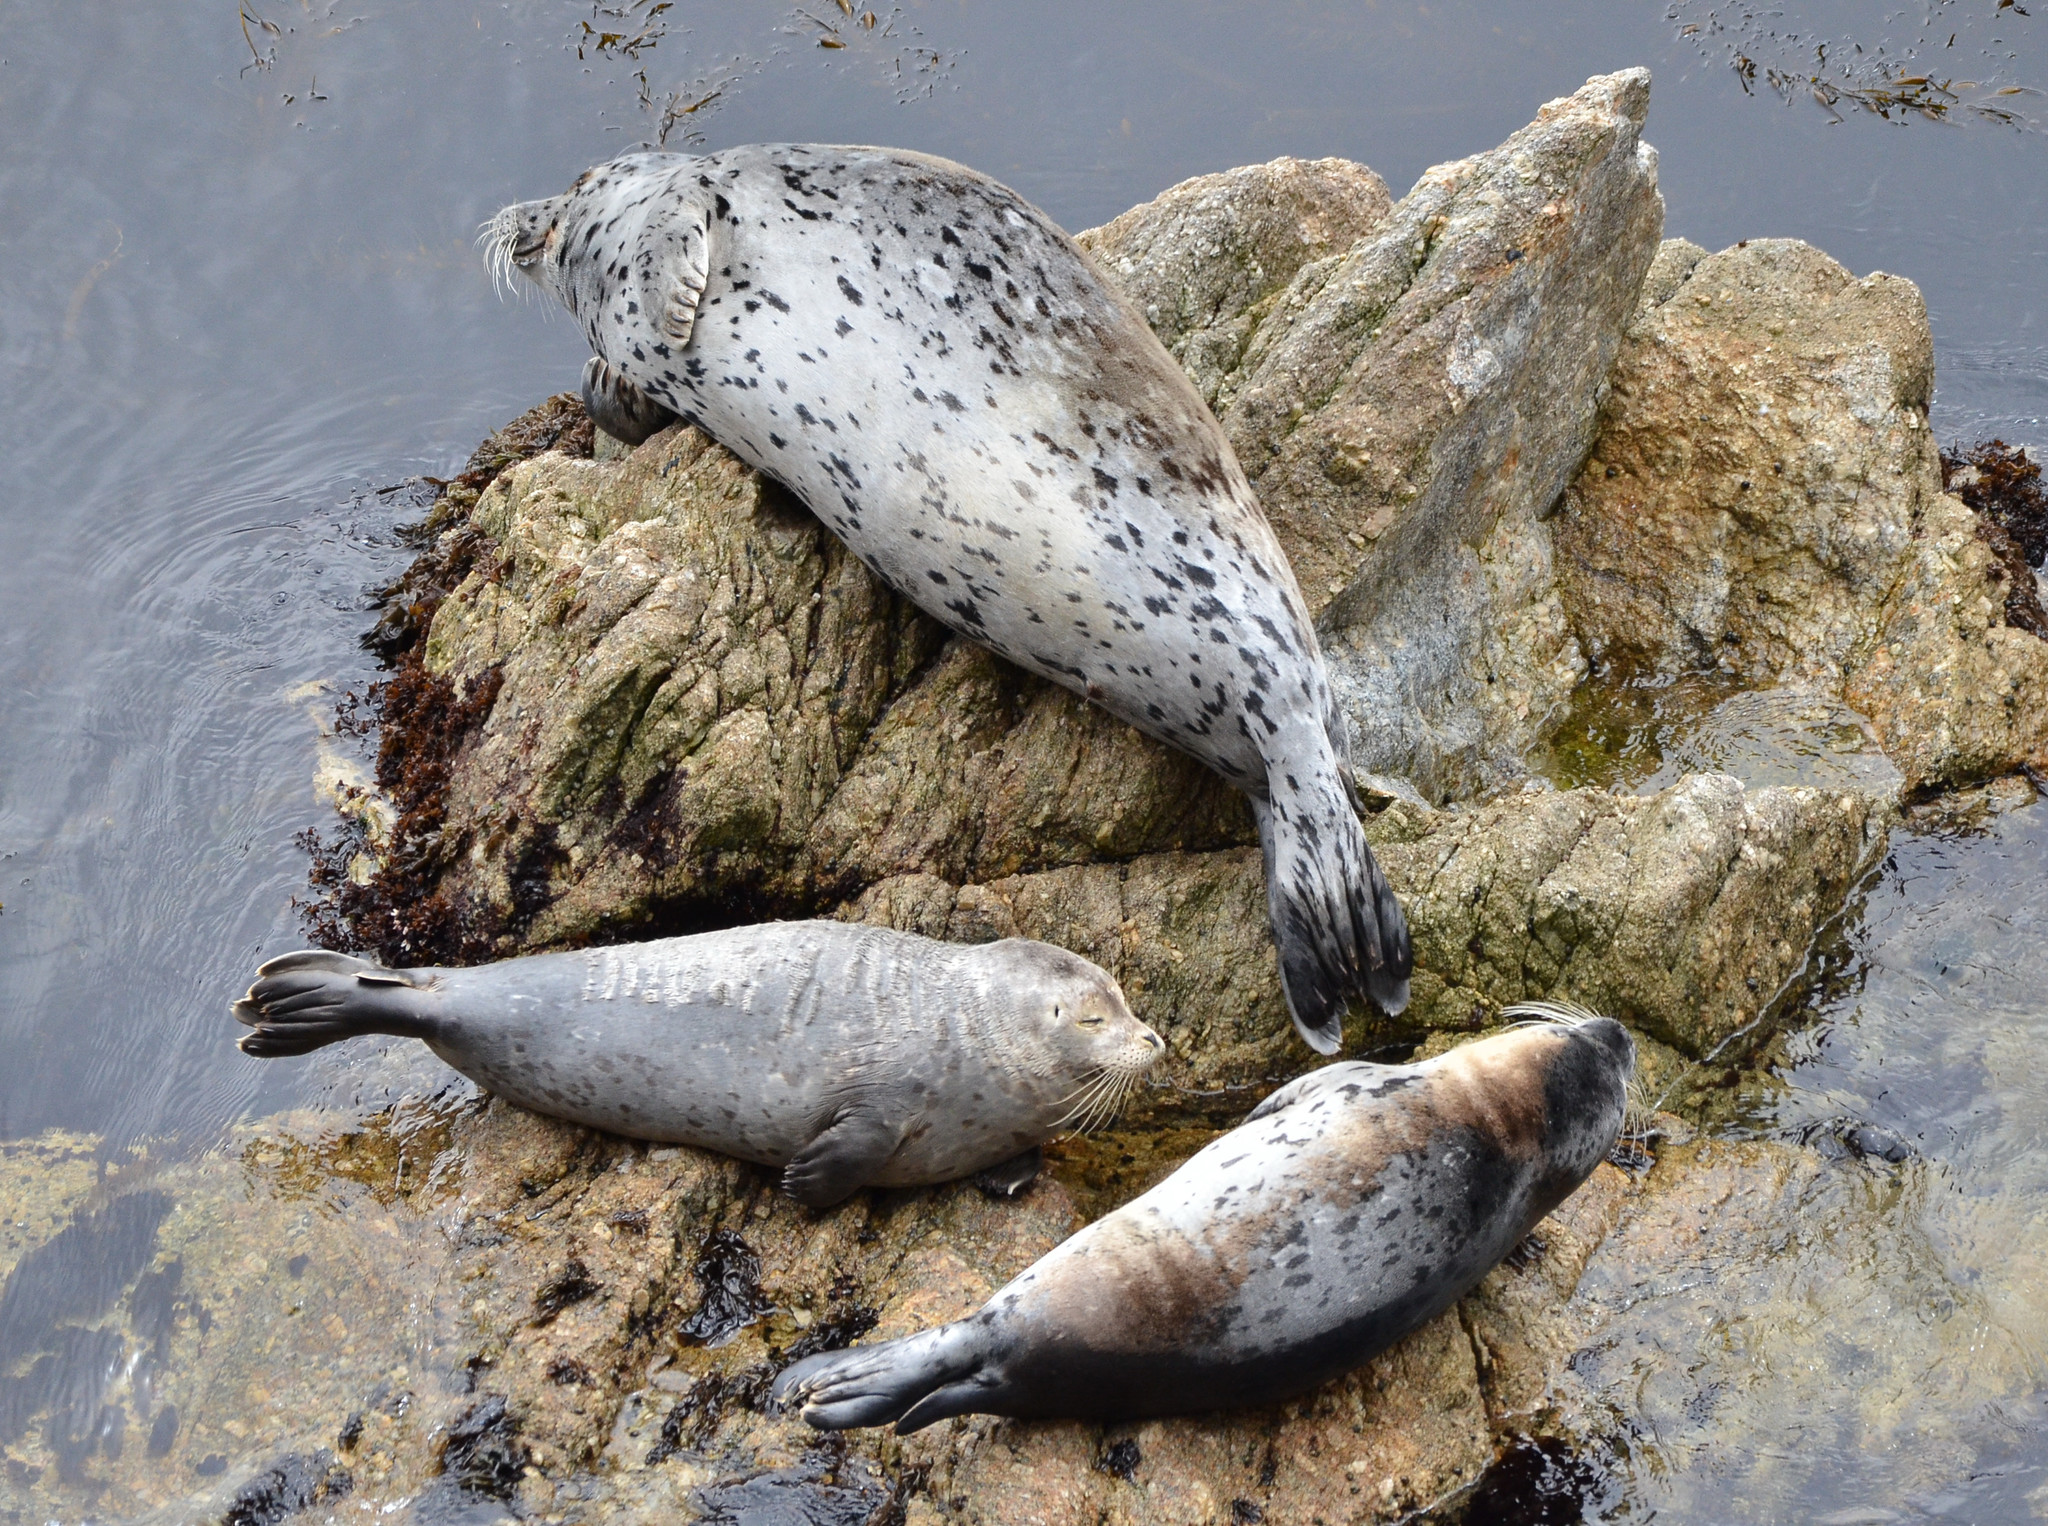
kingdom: Animalia
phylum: Chordata
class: Mammalia
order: Carnivora
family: Phocidae
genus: Phoca
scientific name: Phoca vitulina
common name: Harbor seal
